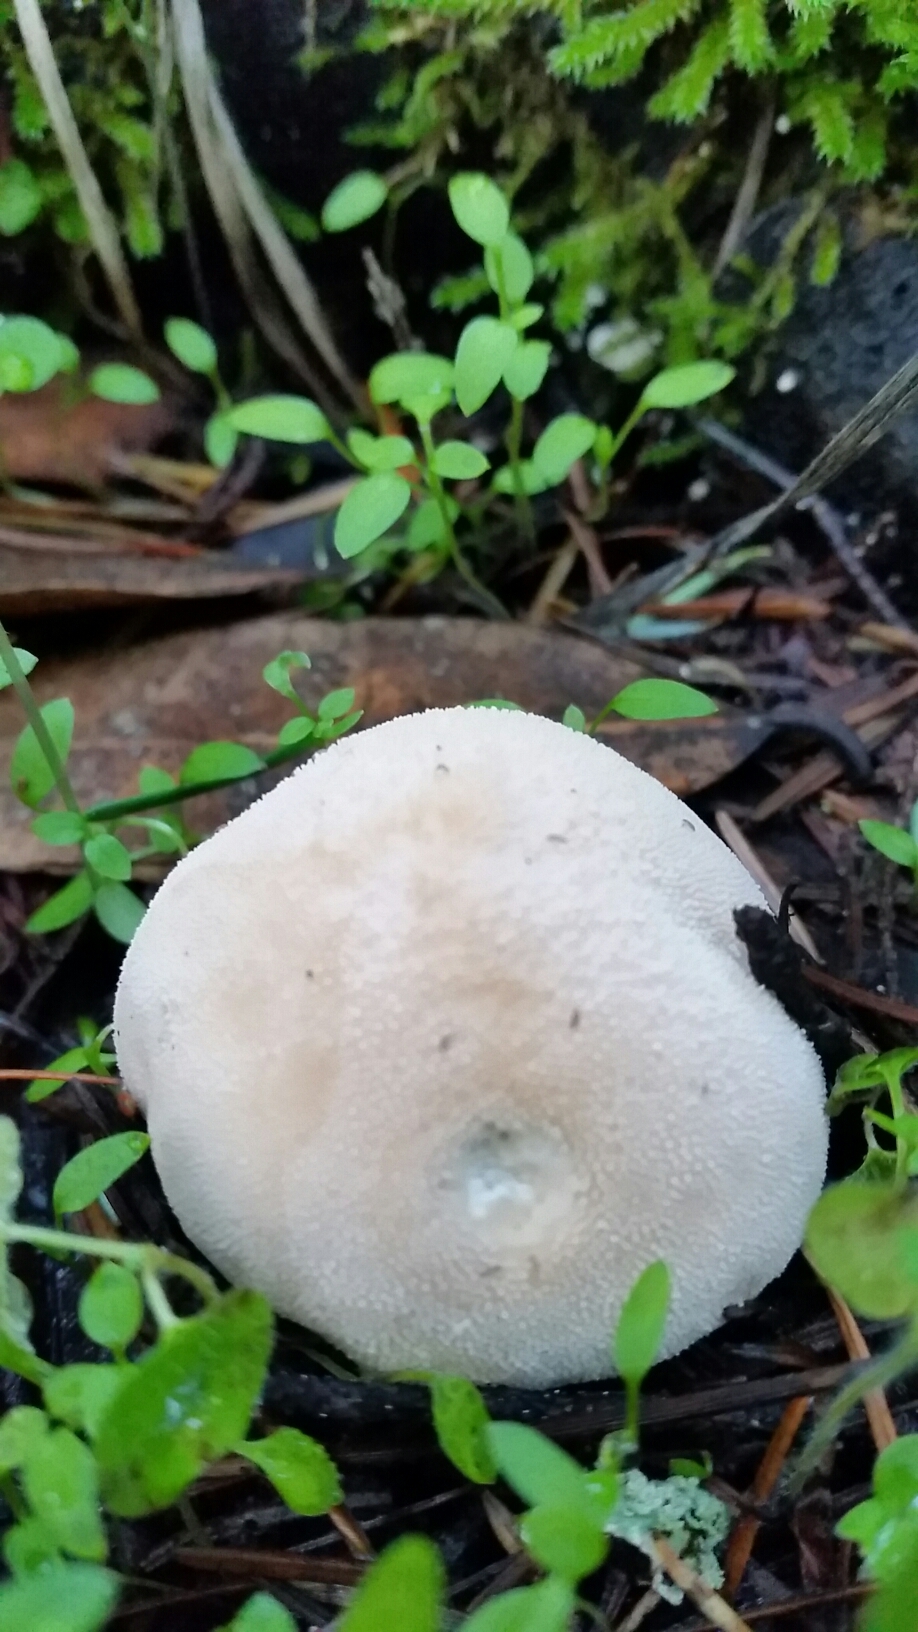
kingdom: Fungi
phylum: Basidiomycota
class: Agaricomycetes
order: Agaricales
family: Lycoperdaceae
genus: Lycoperdon
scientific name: Lycoperdon pratense
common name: Meadow puffball
